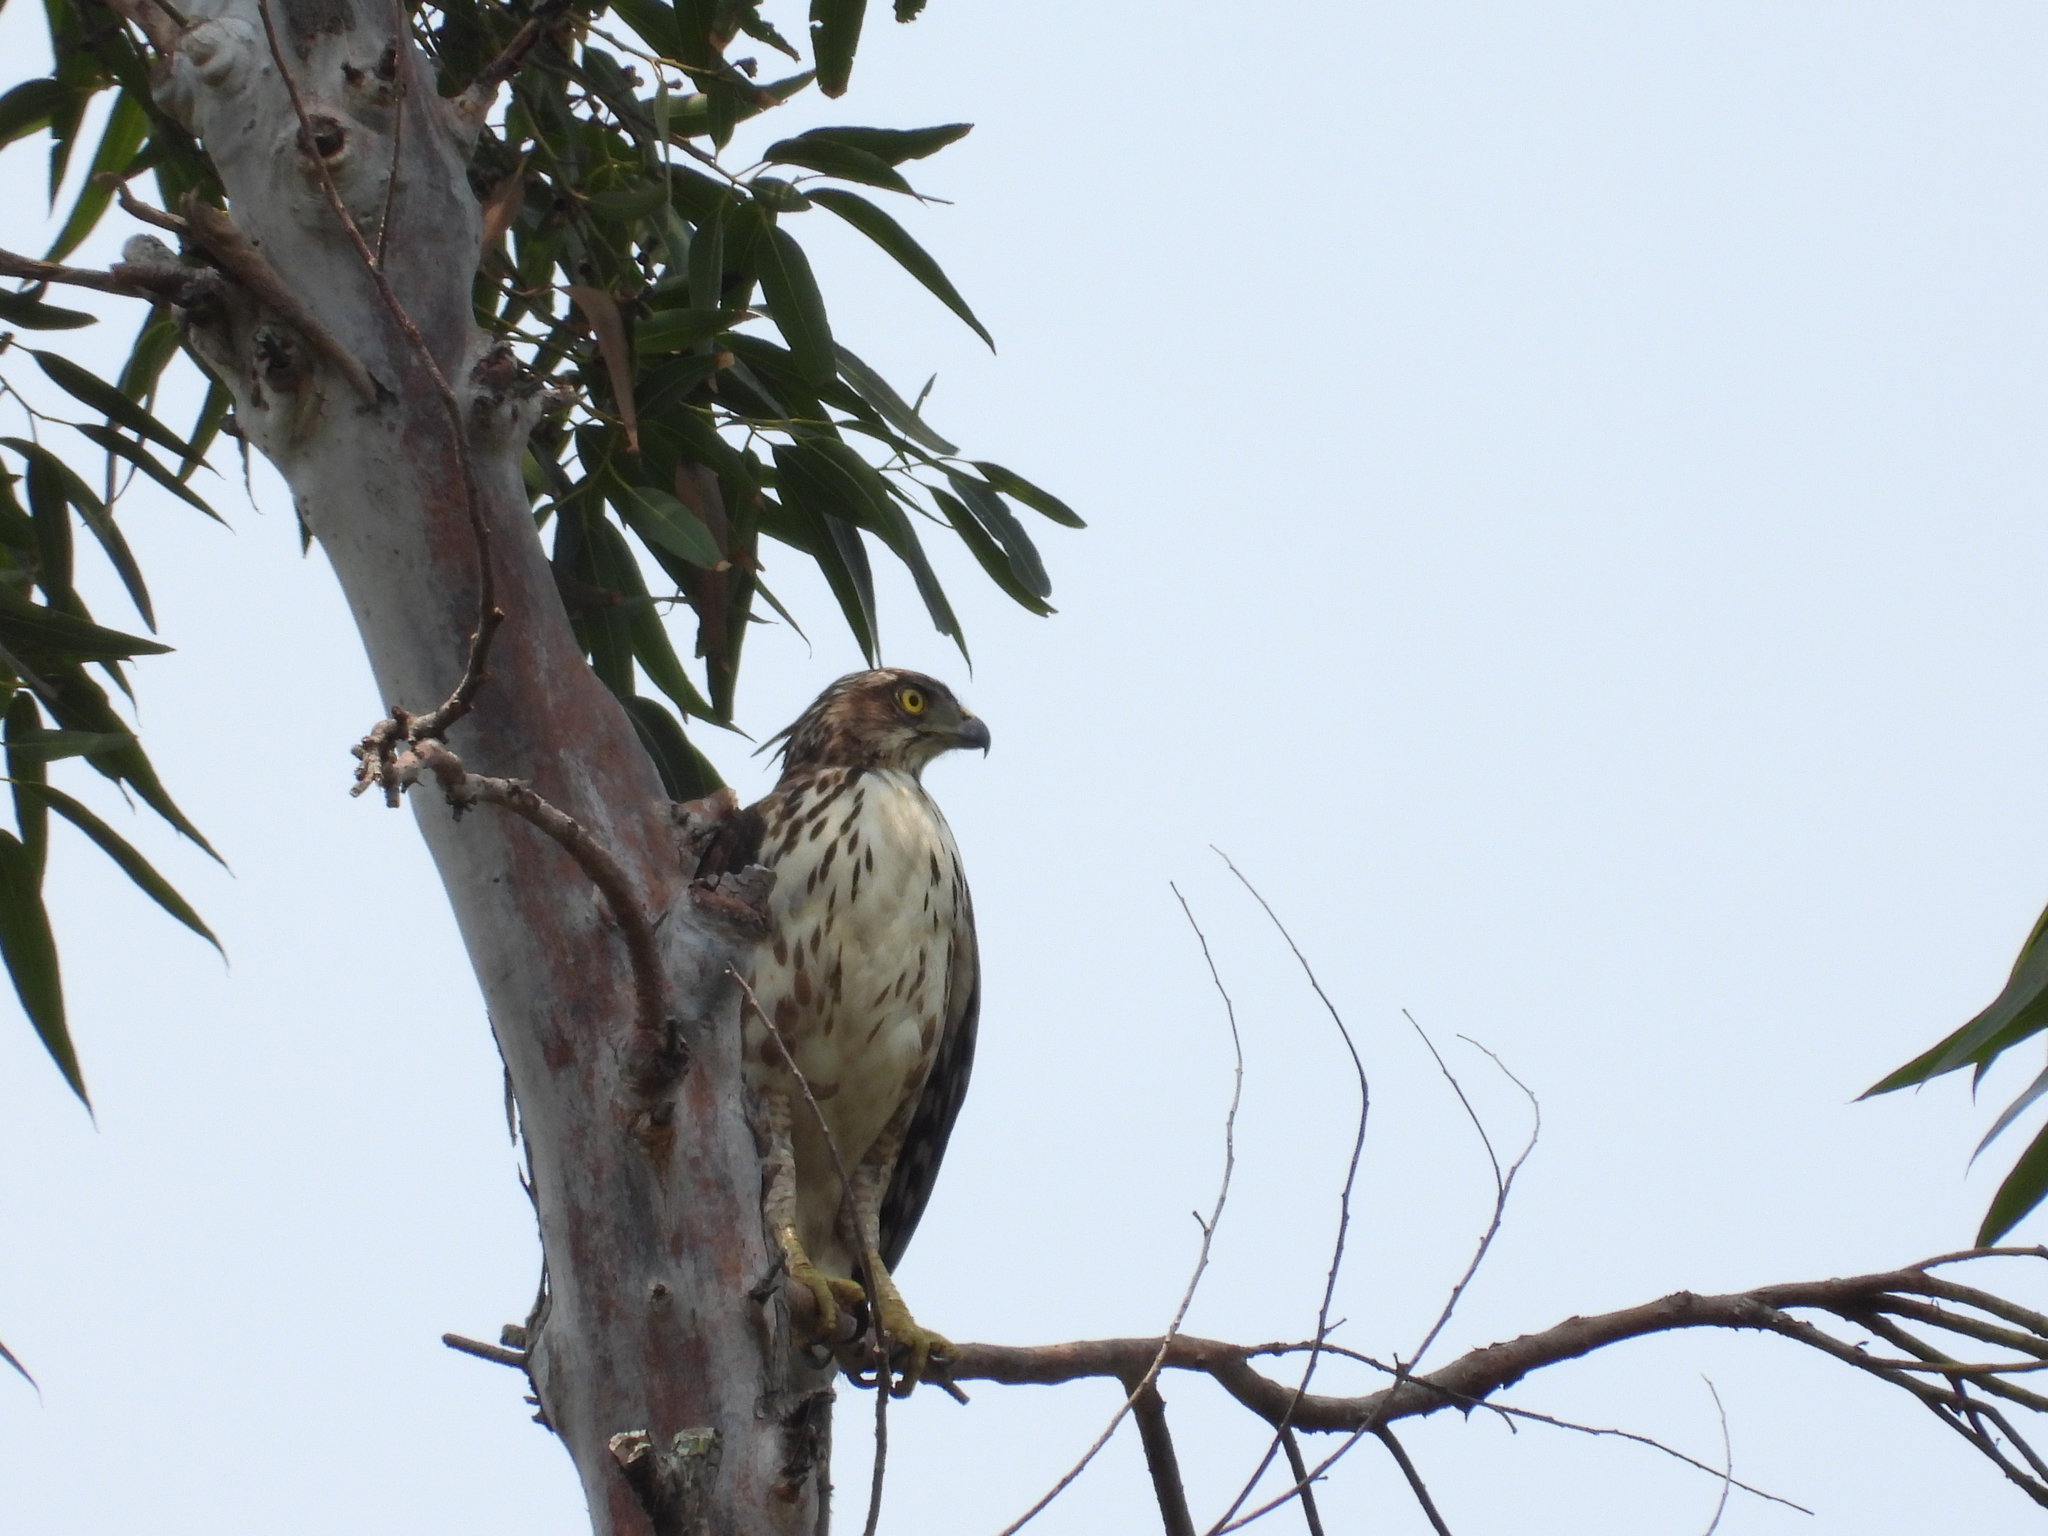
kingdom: Animalia
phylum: Chordata
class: Aves
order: Accipitriformes
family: Accipitridae
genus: Accipiter
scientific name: Accipiter trivirgatus
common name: Crested goshawk
